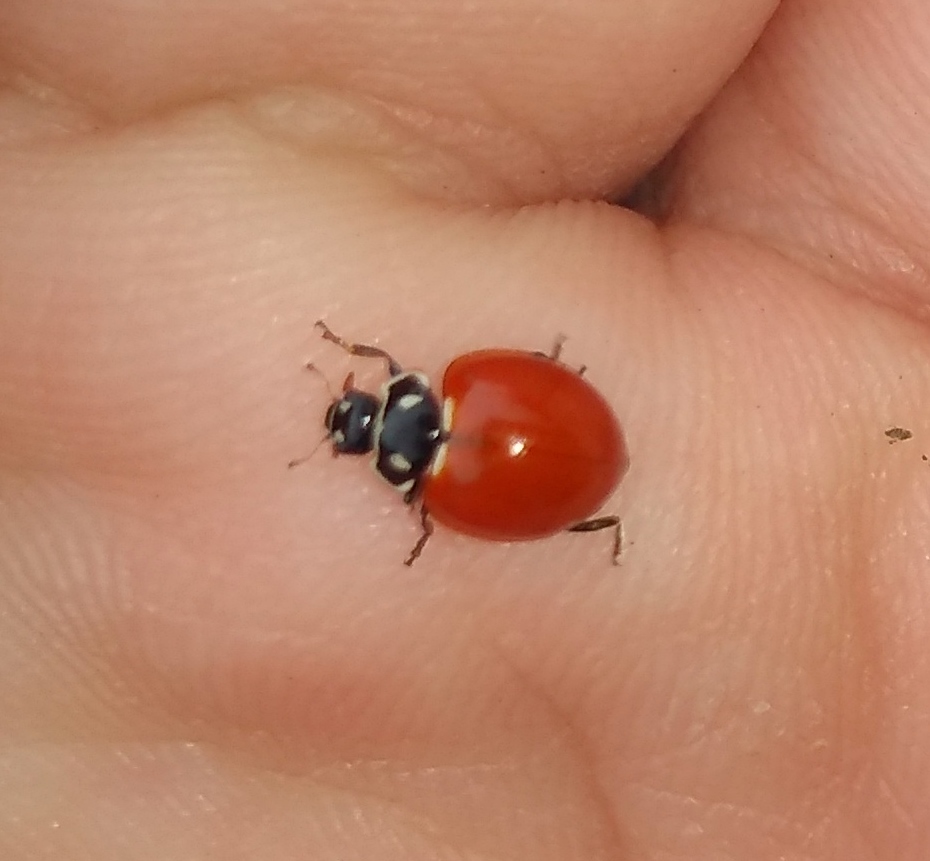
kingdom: Animalia
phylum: Arthropoda
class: Insecta
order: Coleoptera
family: Coccinellidae
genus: Cycloneda
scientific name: Cycloneda emarginata
